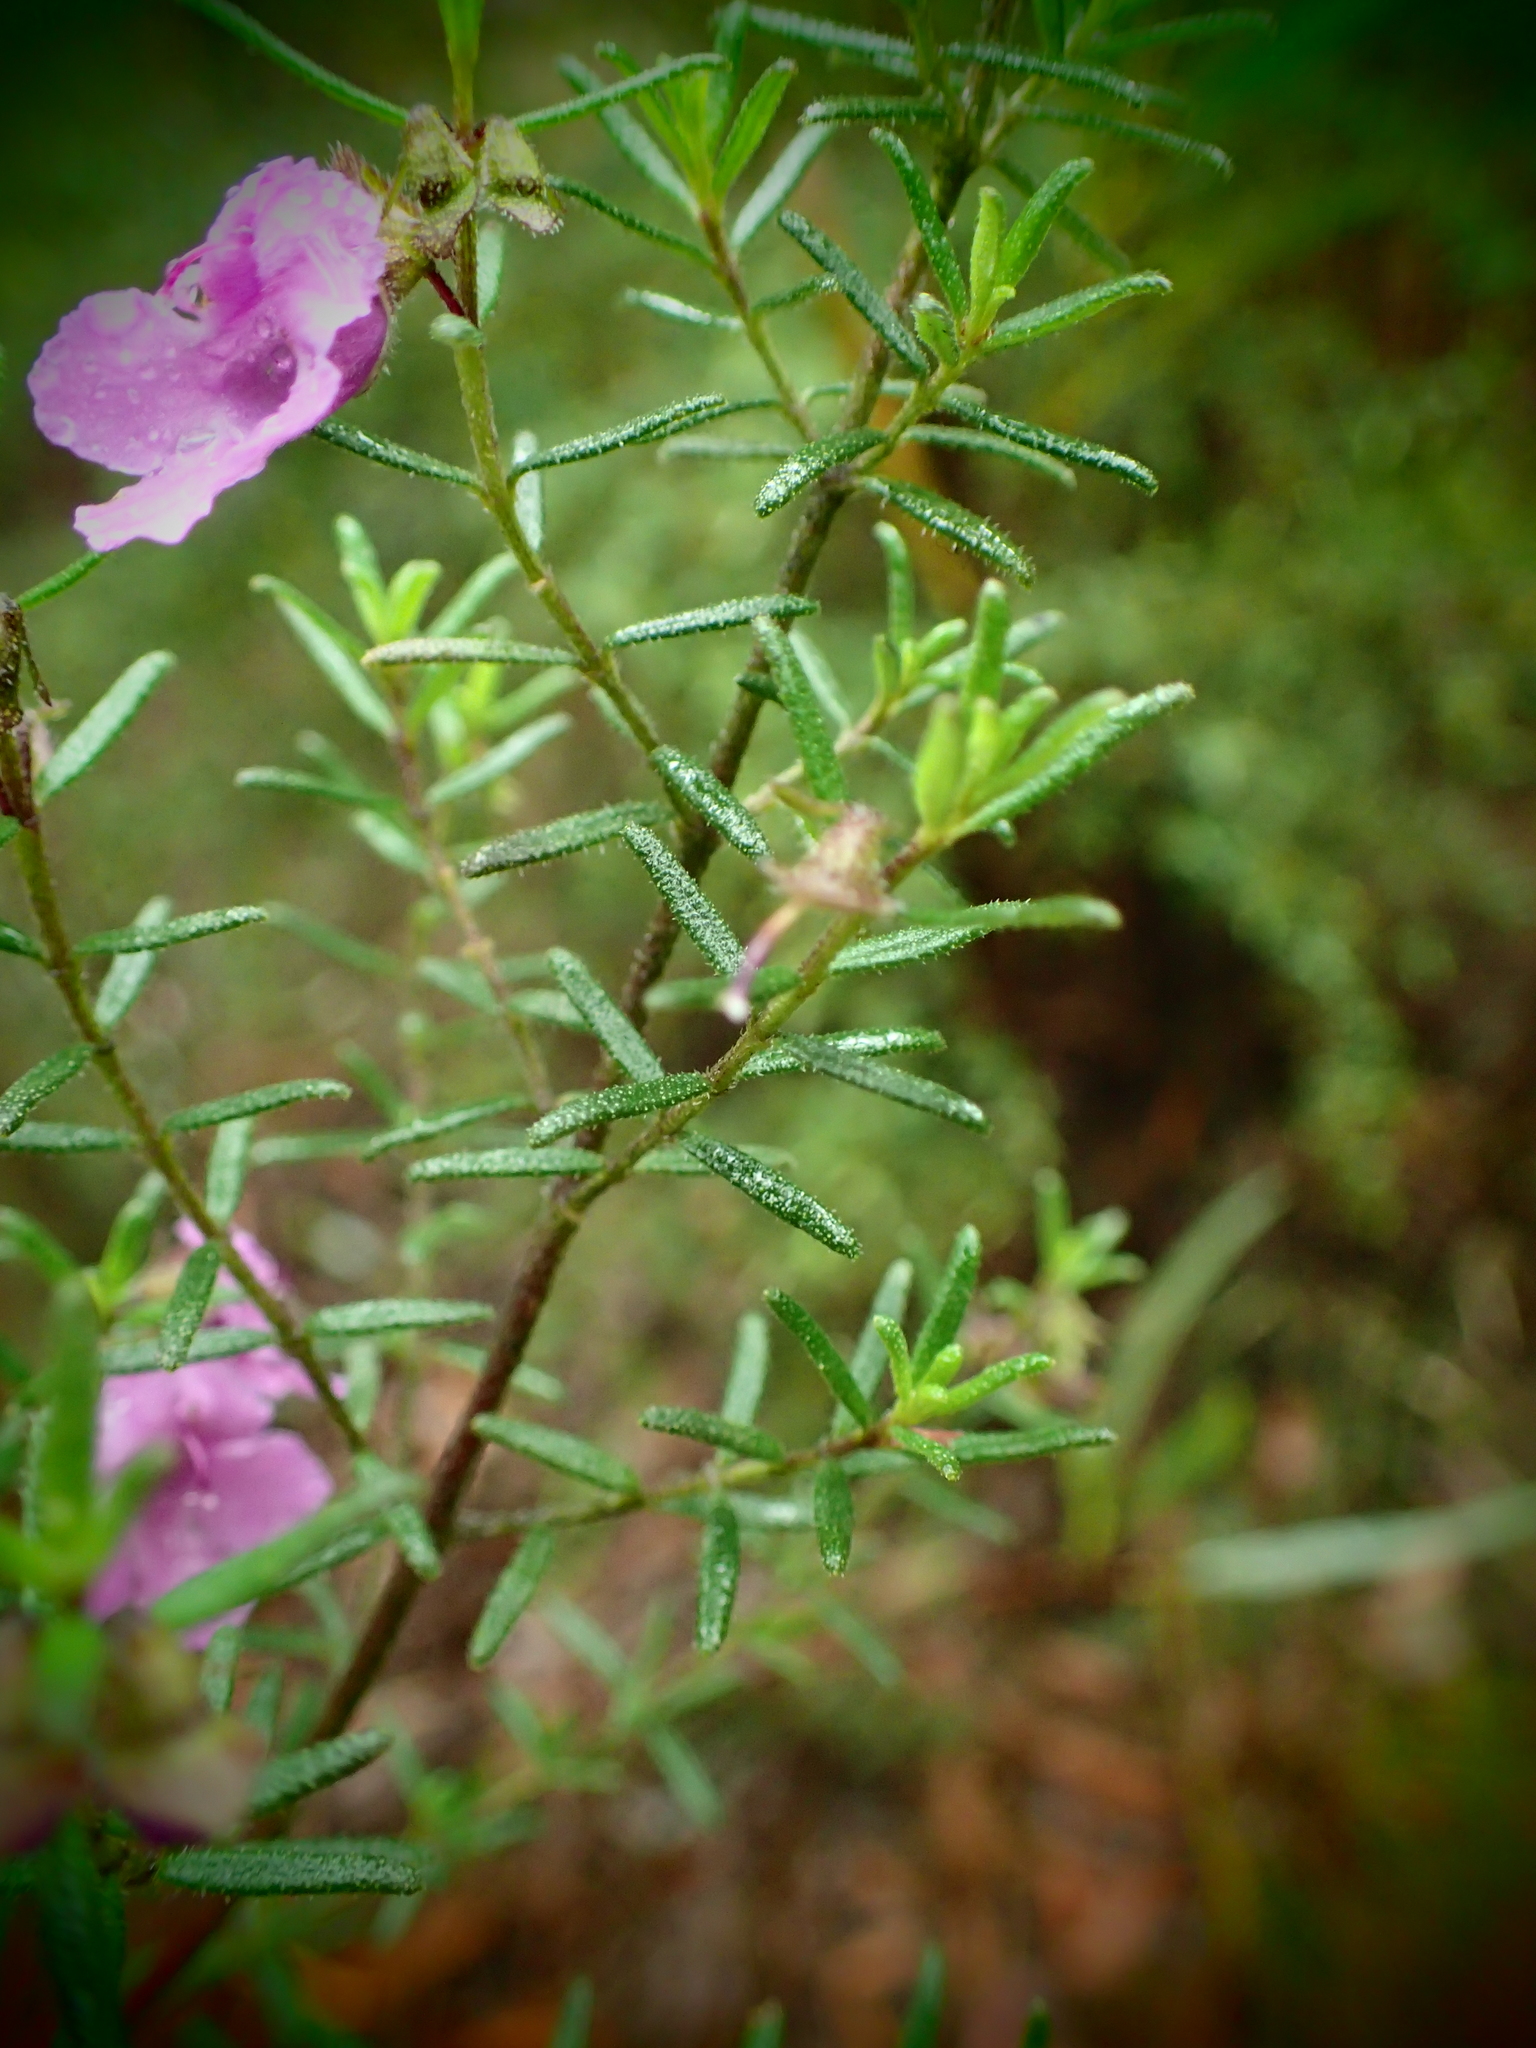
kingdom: Plantae
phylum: Tracheophyta
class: Magnoliopsida
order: Lamiales
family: Lamiaceae
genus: Prostanthera
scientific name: Prostanthera howelliae
